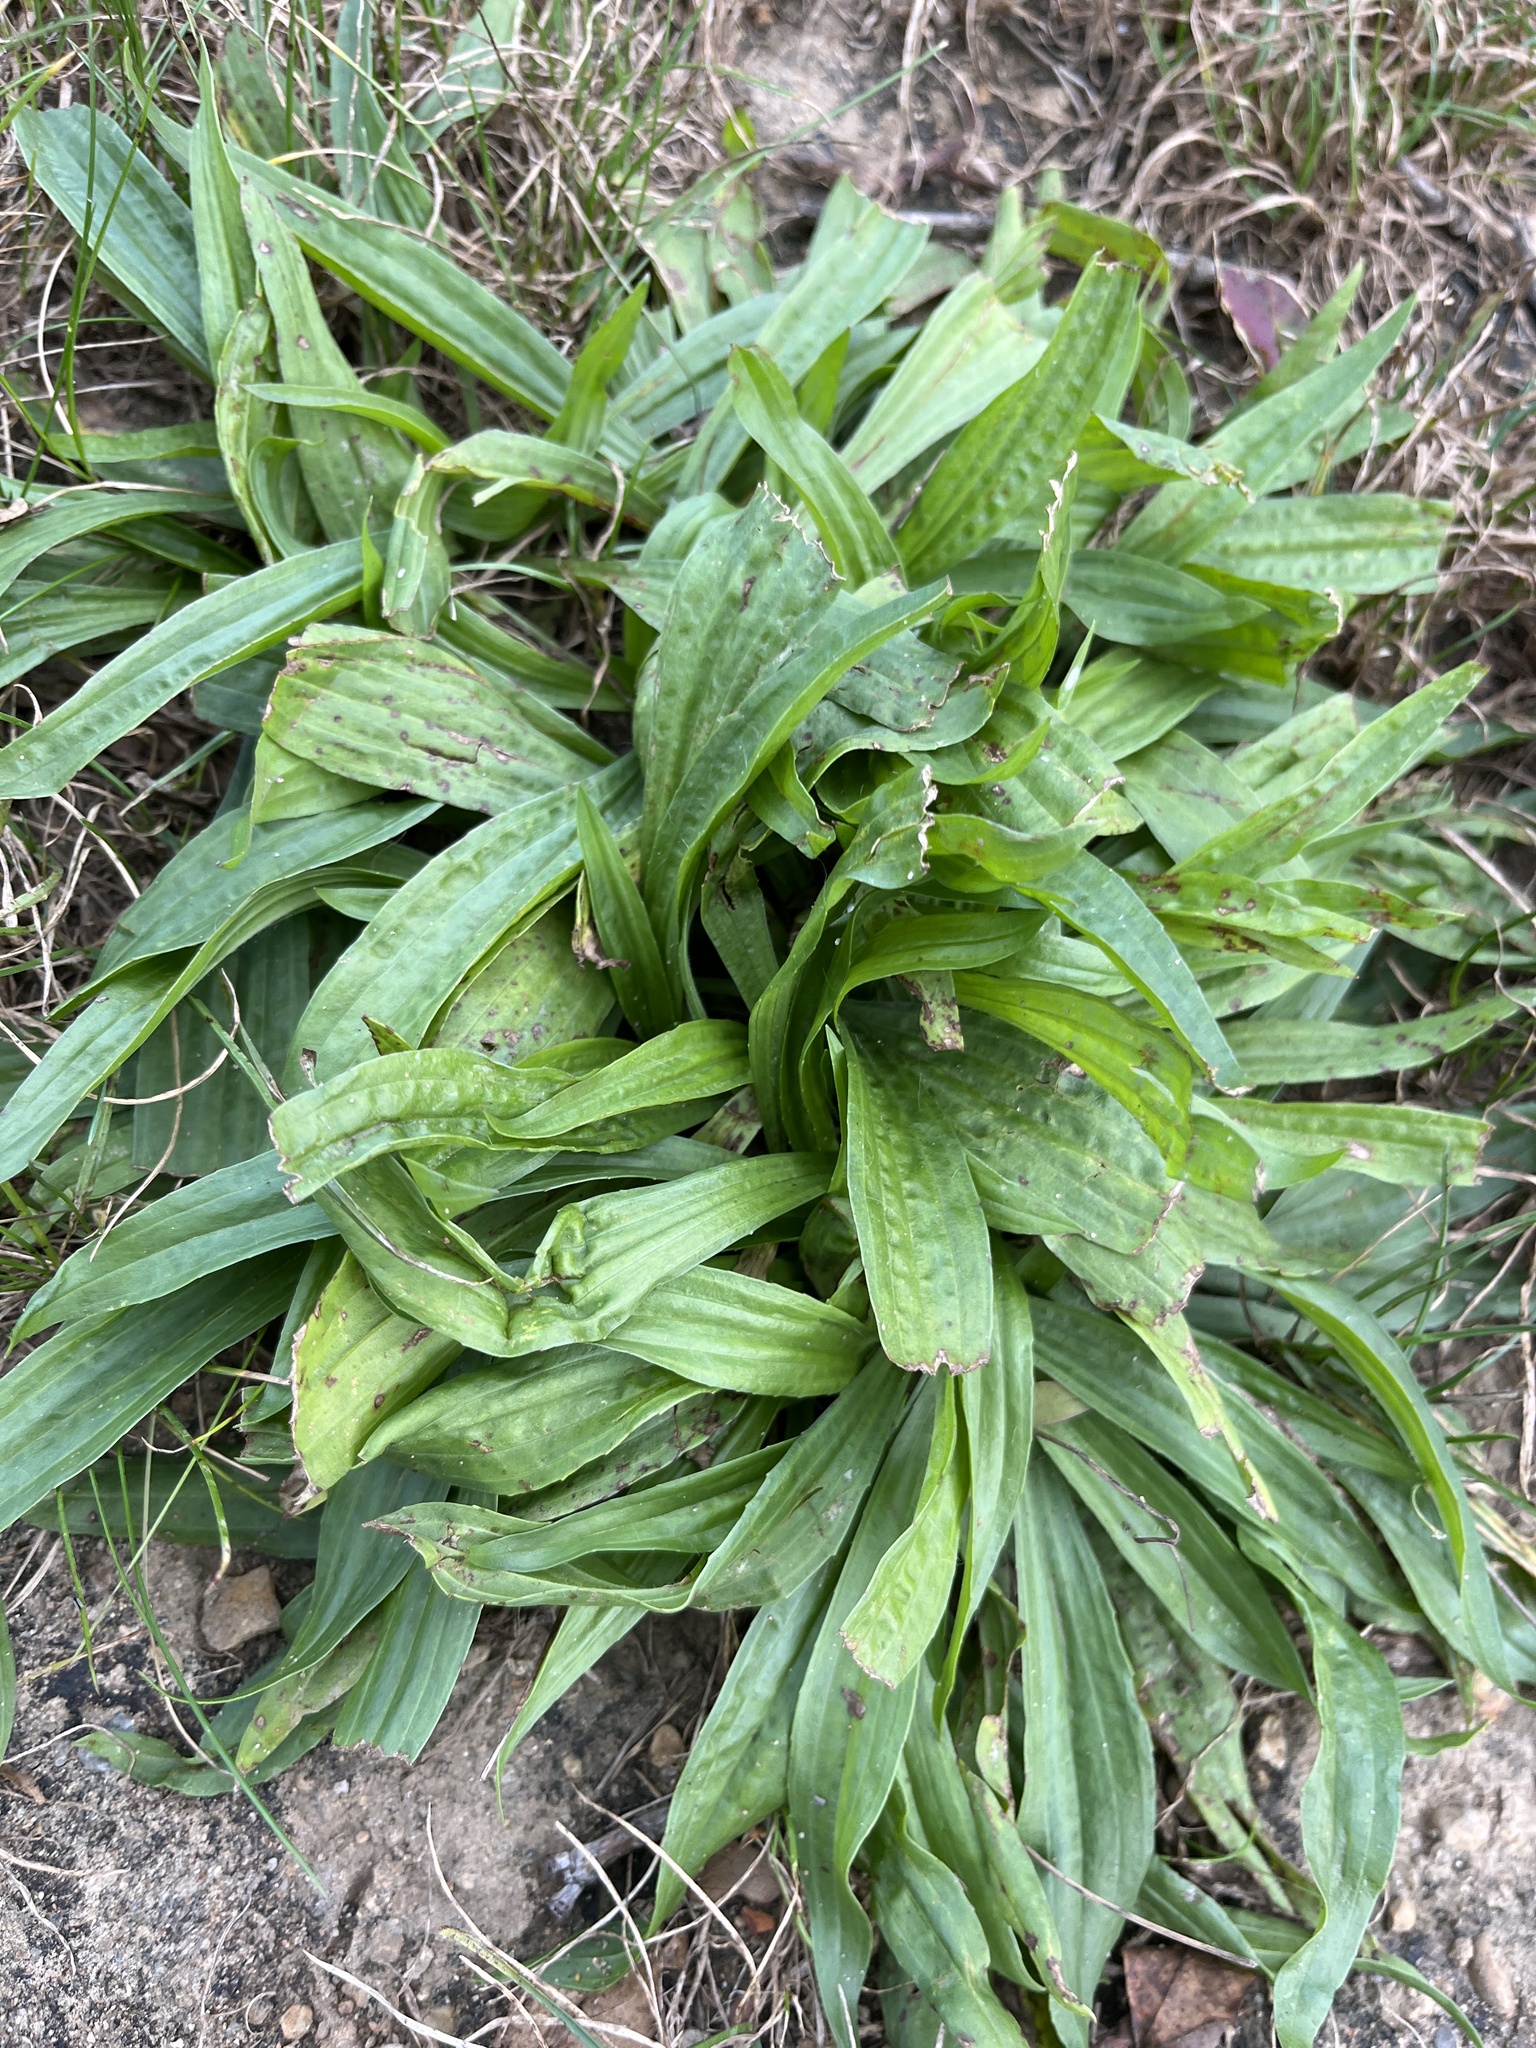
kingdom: Plantae
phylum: Tracheophyta
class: Magnoliopsida
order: Lamiales
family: Plantaginaceae
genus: Plantago
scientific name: Plantago lanceolata
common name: Ribwort plantain
